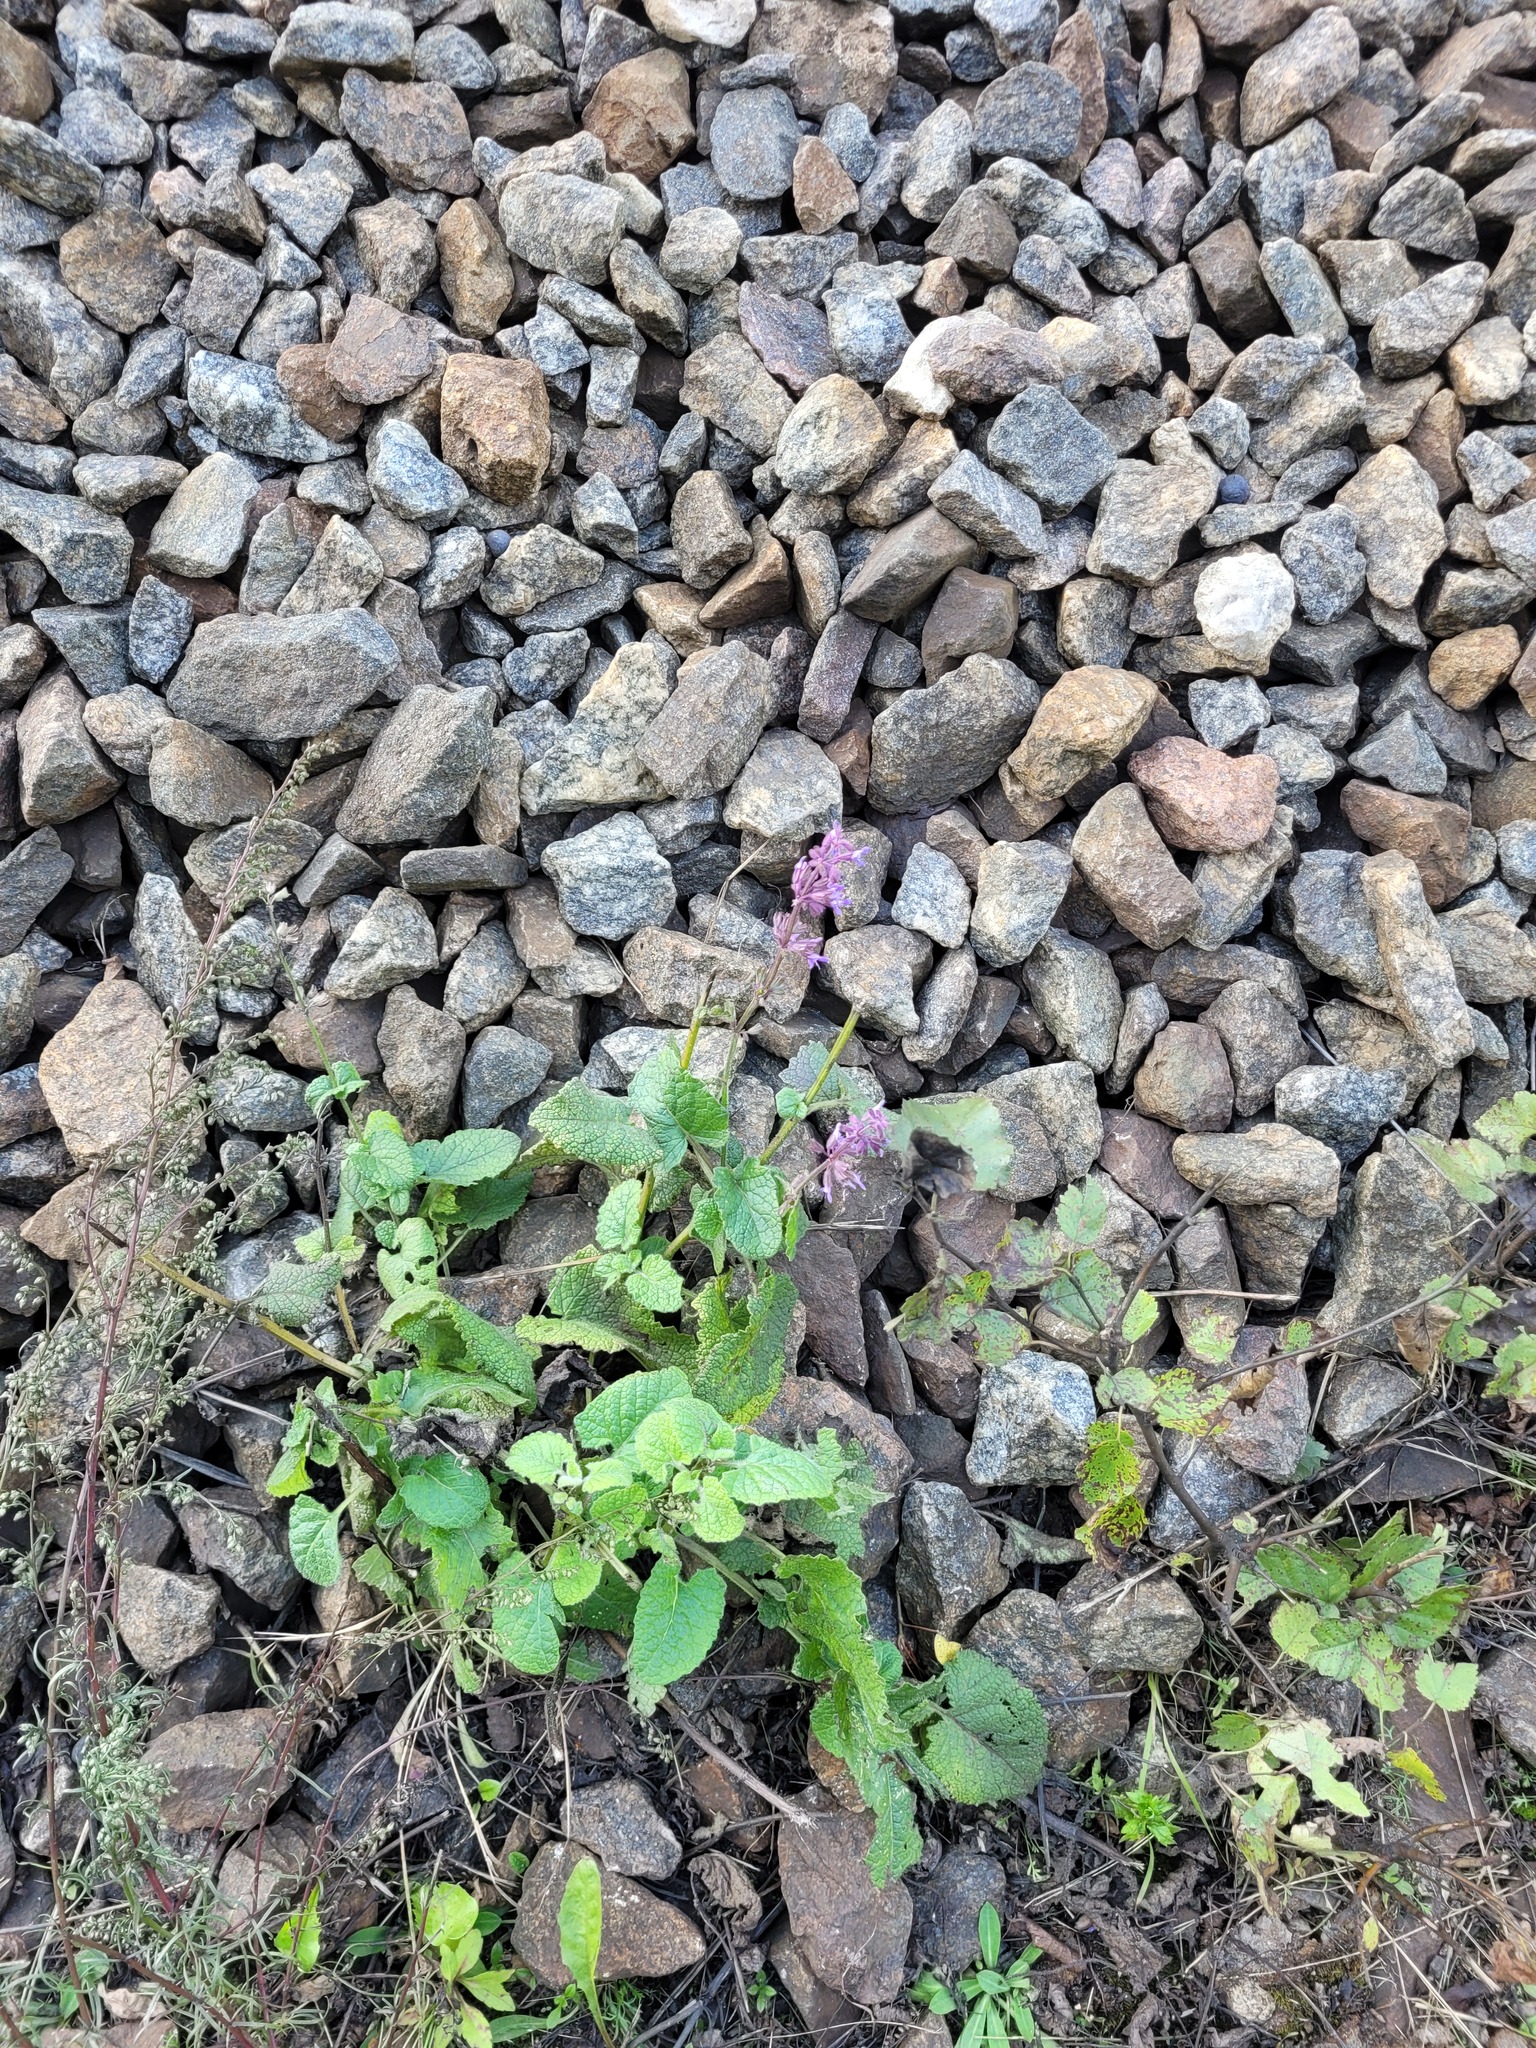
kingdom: Plantae
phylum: Tracheophyta
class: Magnoliopsida
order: Lamiales
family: Lamiaceae
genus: Salvia
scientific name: Salvia verticillata
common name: Whorled clary
